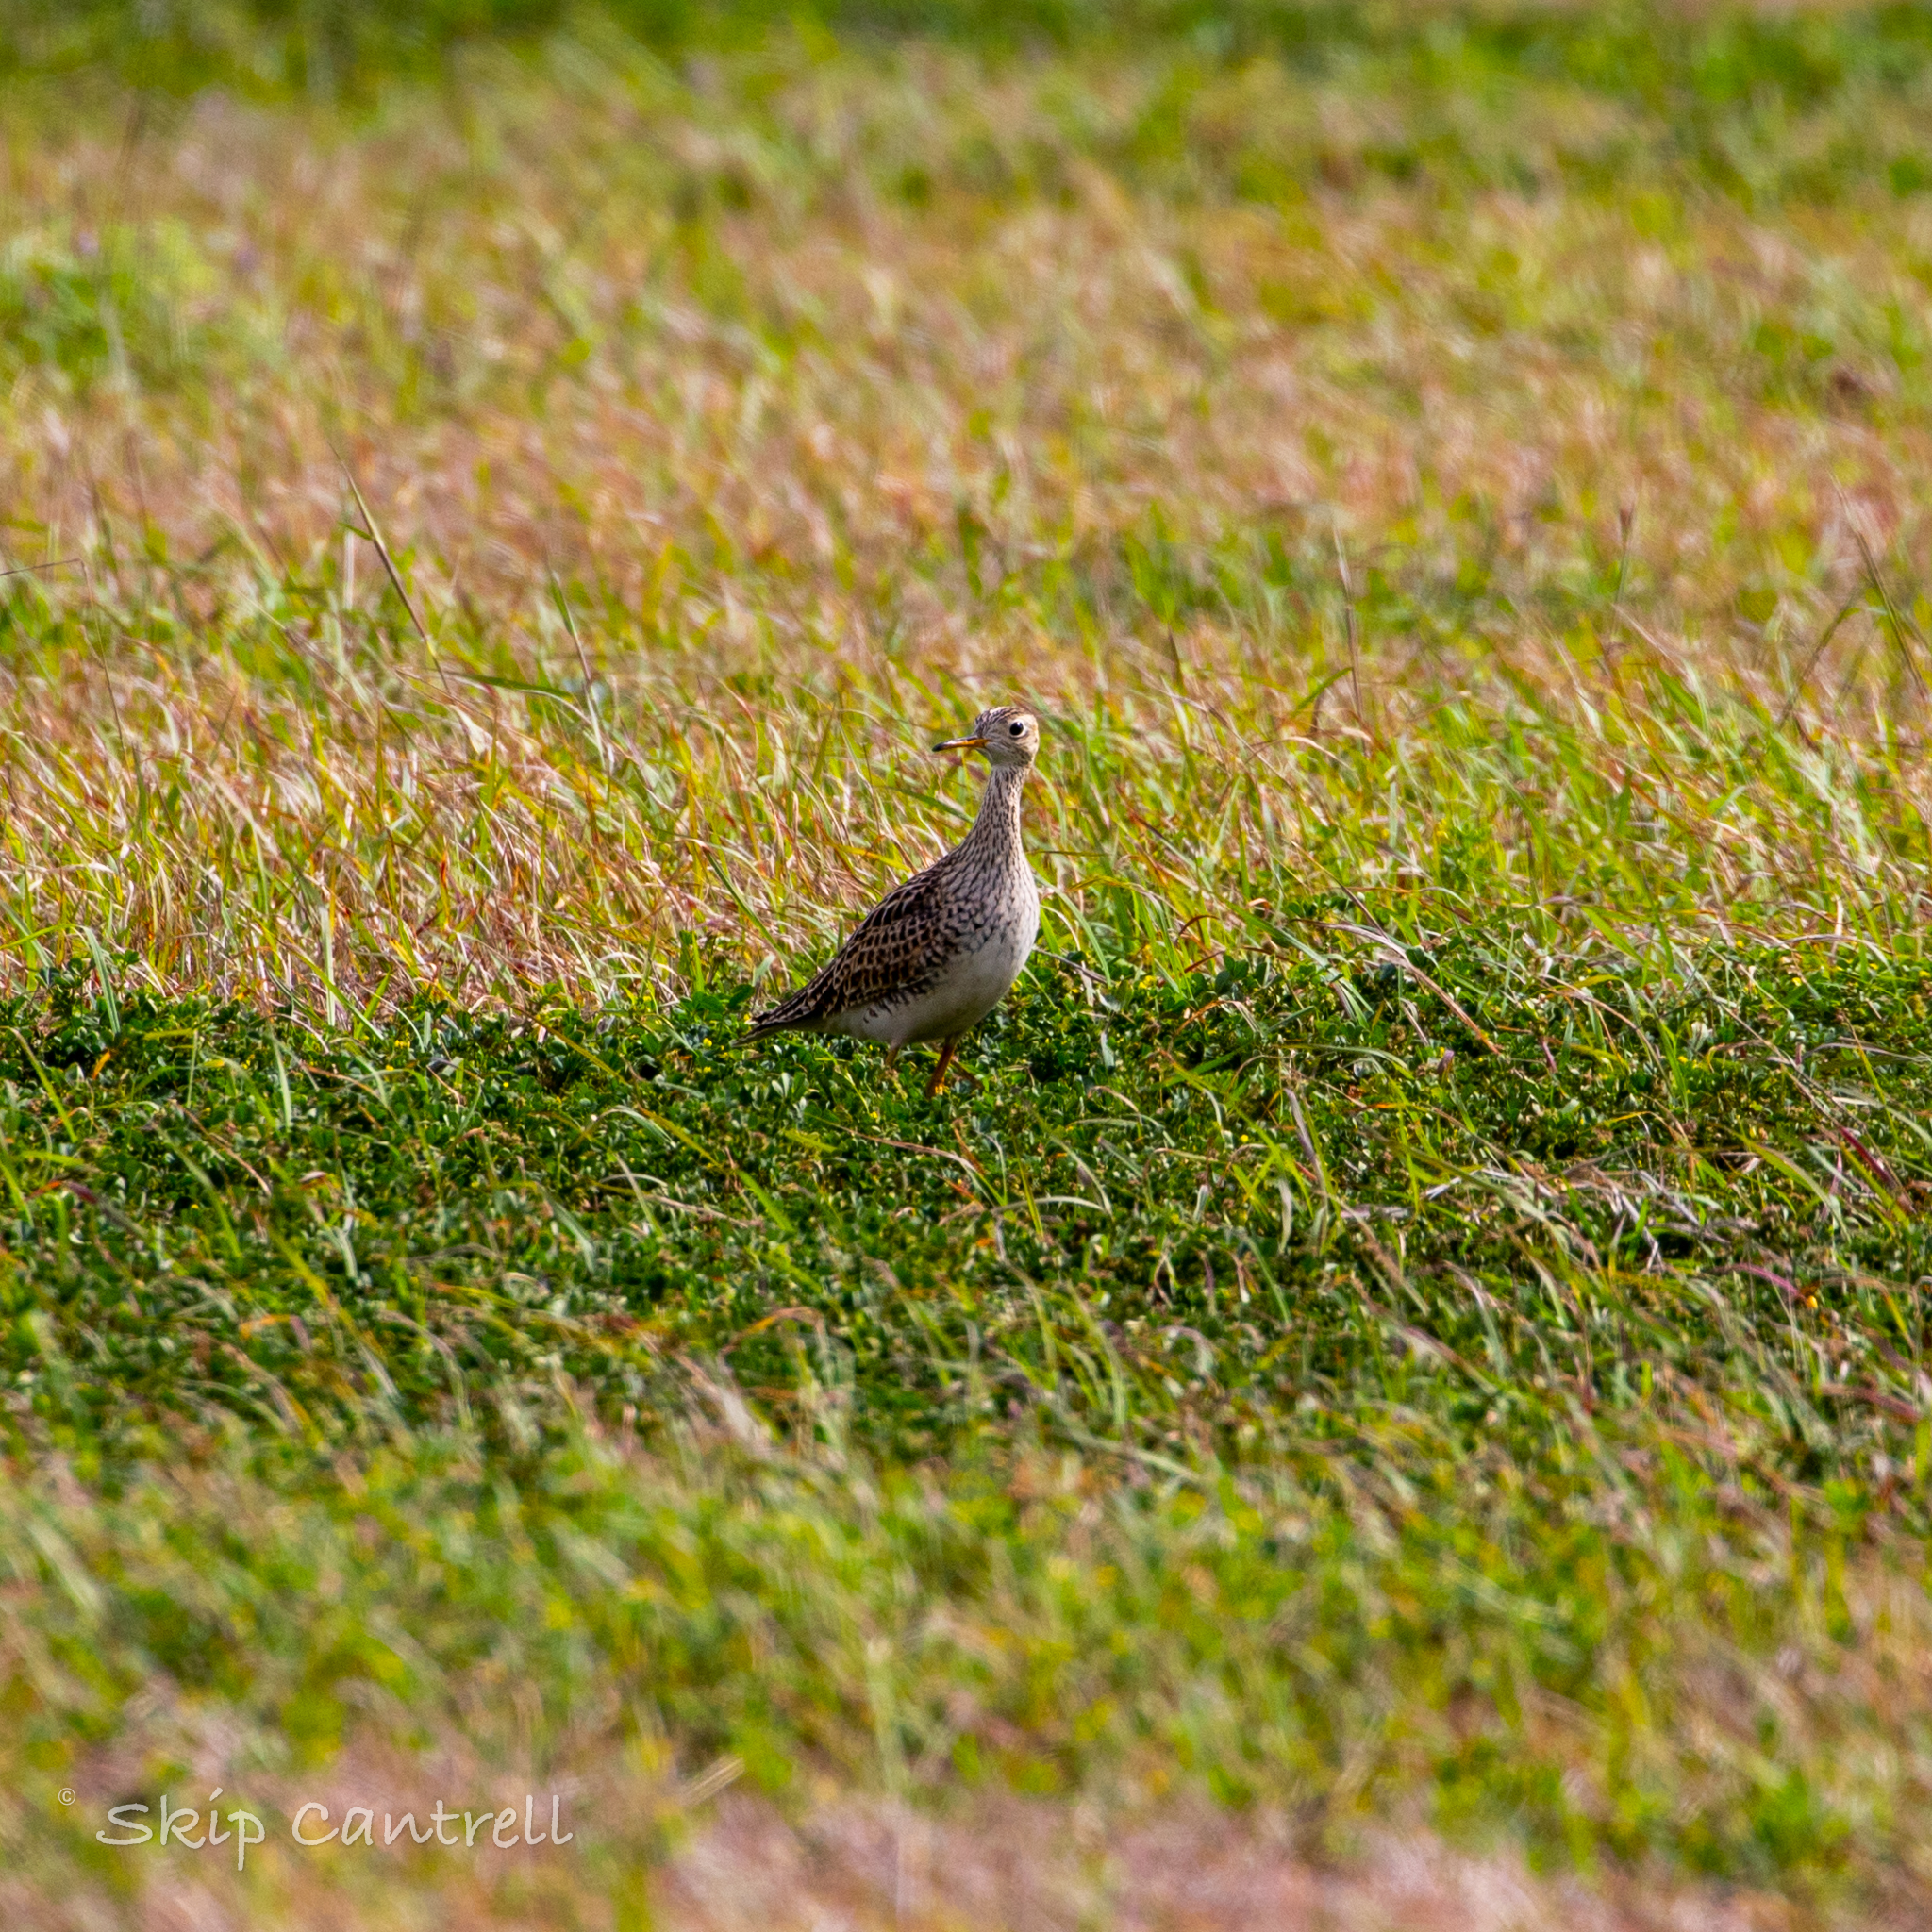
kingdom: Animalia
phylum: Chordata
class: Aves
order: Charadriiformes
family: Scolopacidae
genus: Bartramia
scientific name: Bartramia longicauda
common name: Upland sandpiper
